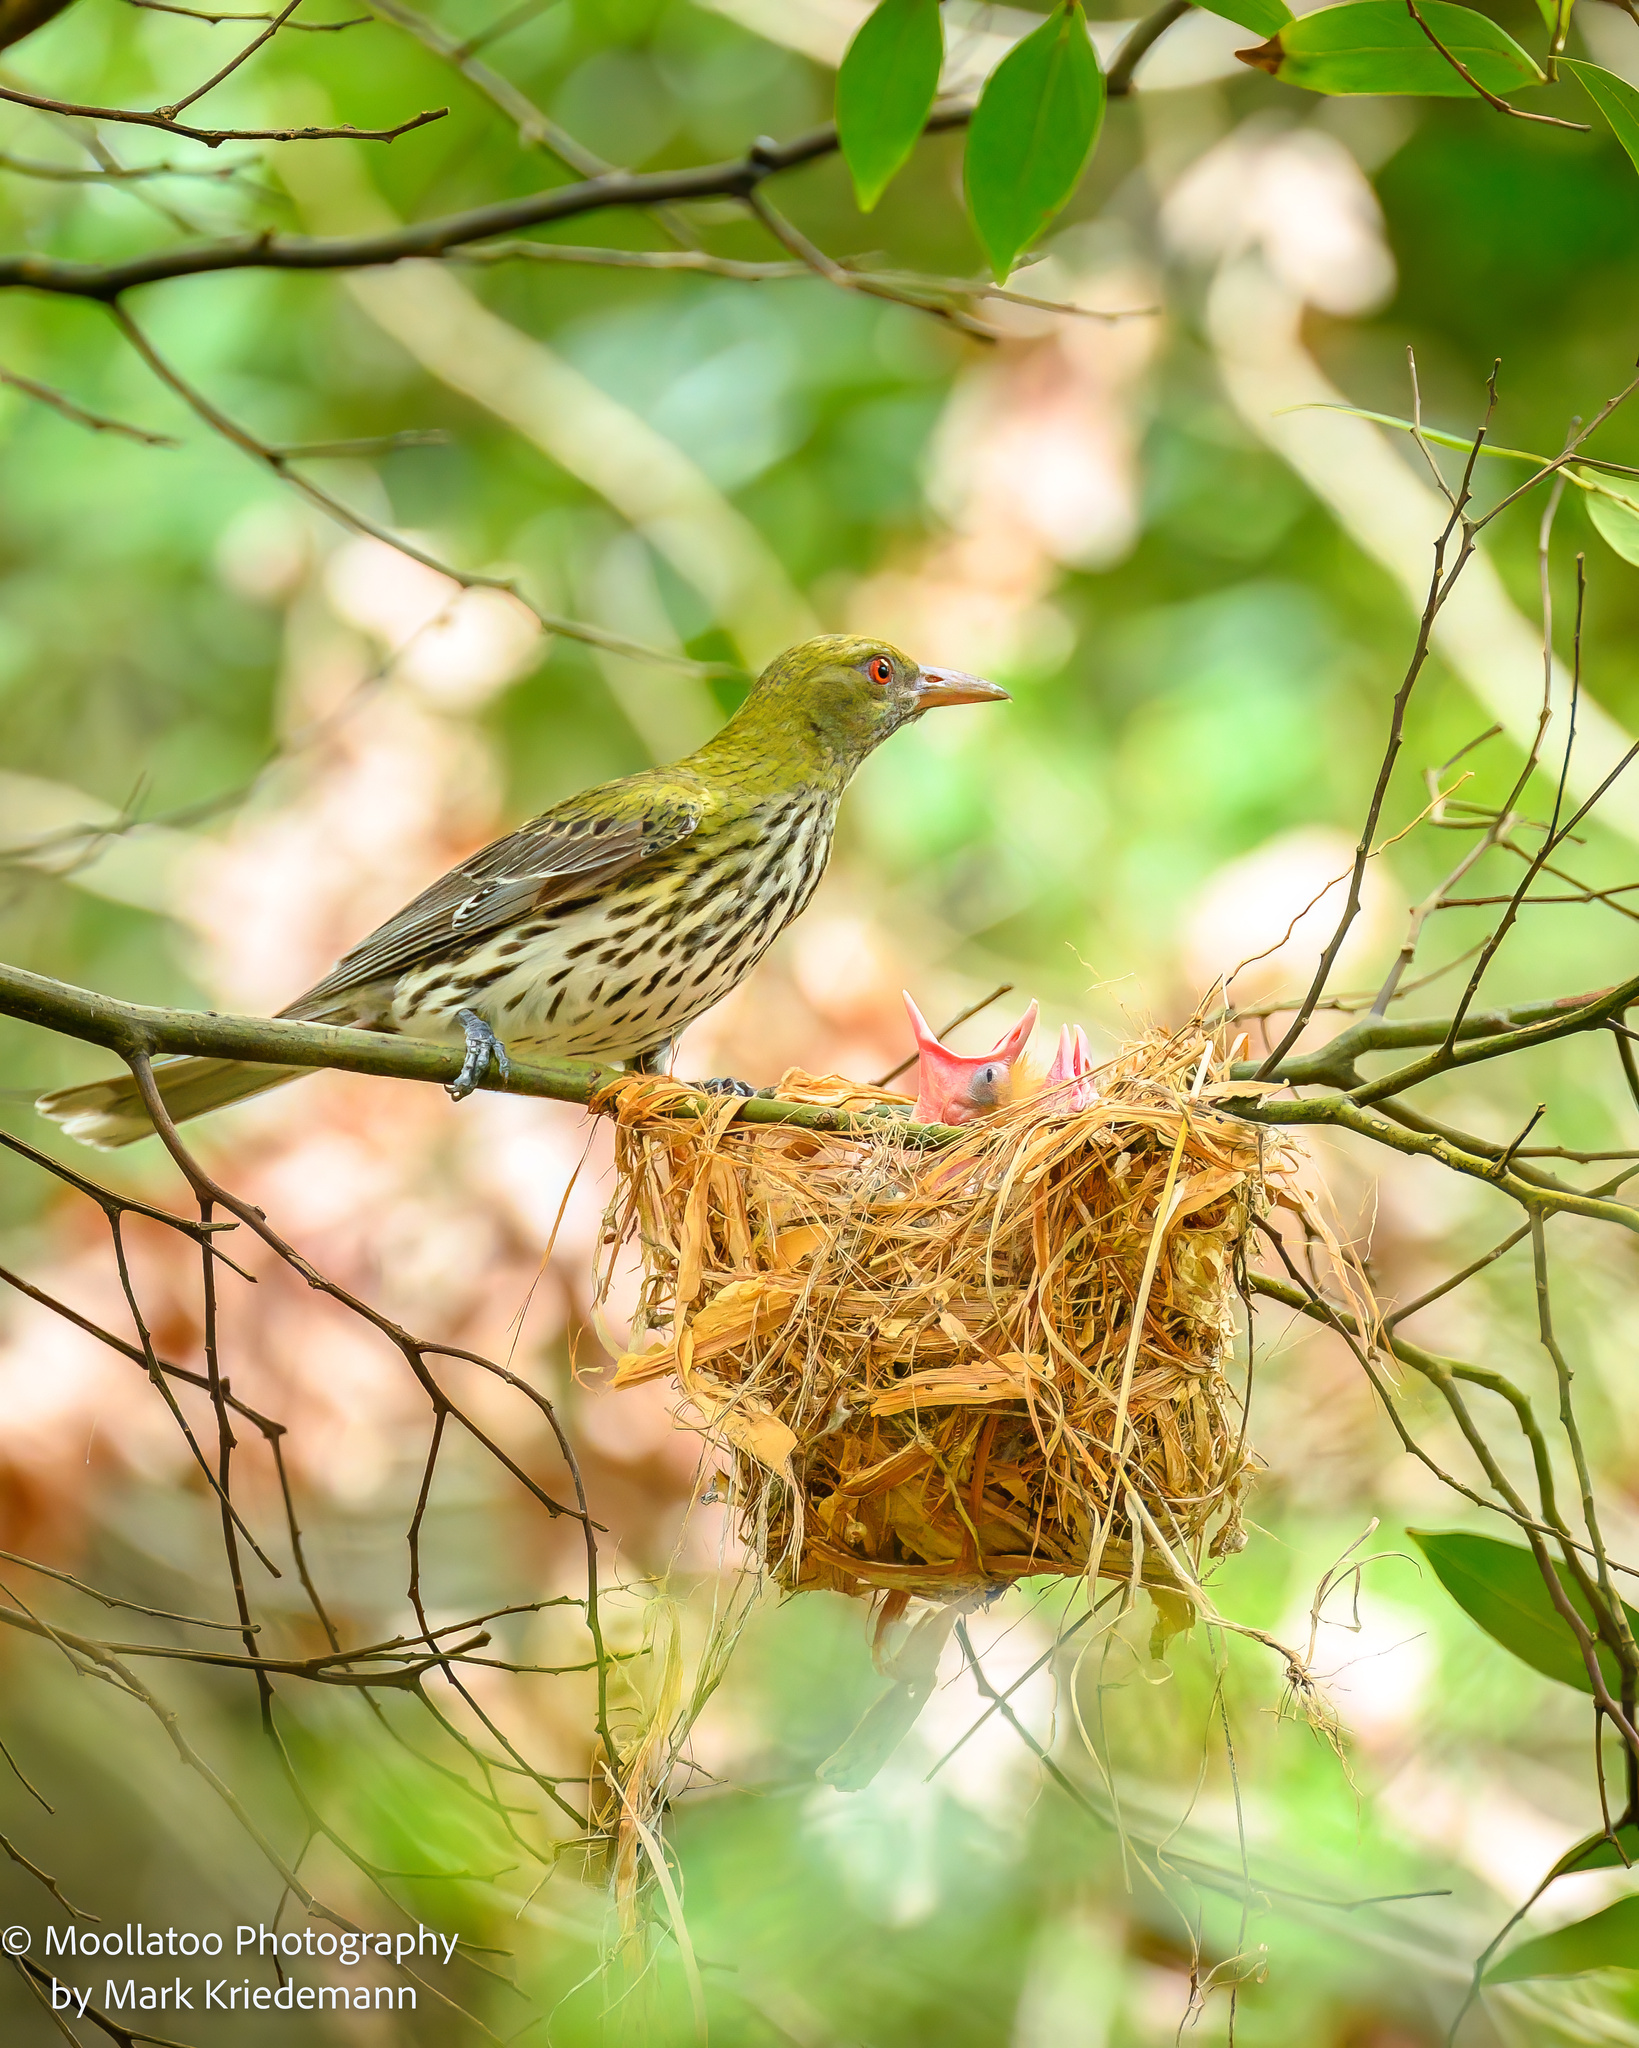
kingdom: Animalia
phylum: Chordata
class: Aves
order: Passeriformes
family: Oriolidae
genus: Oriolus
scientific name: Oriolus sagittatus
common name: Olive-backed oriole
